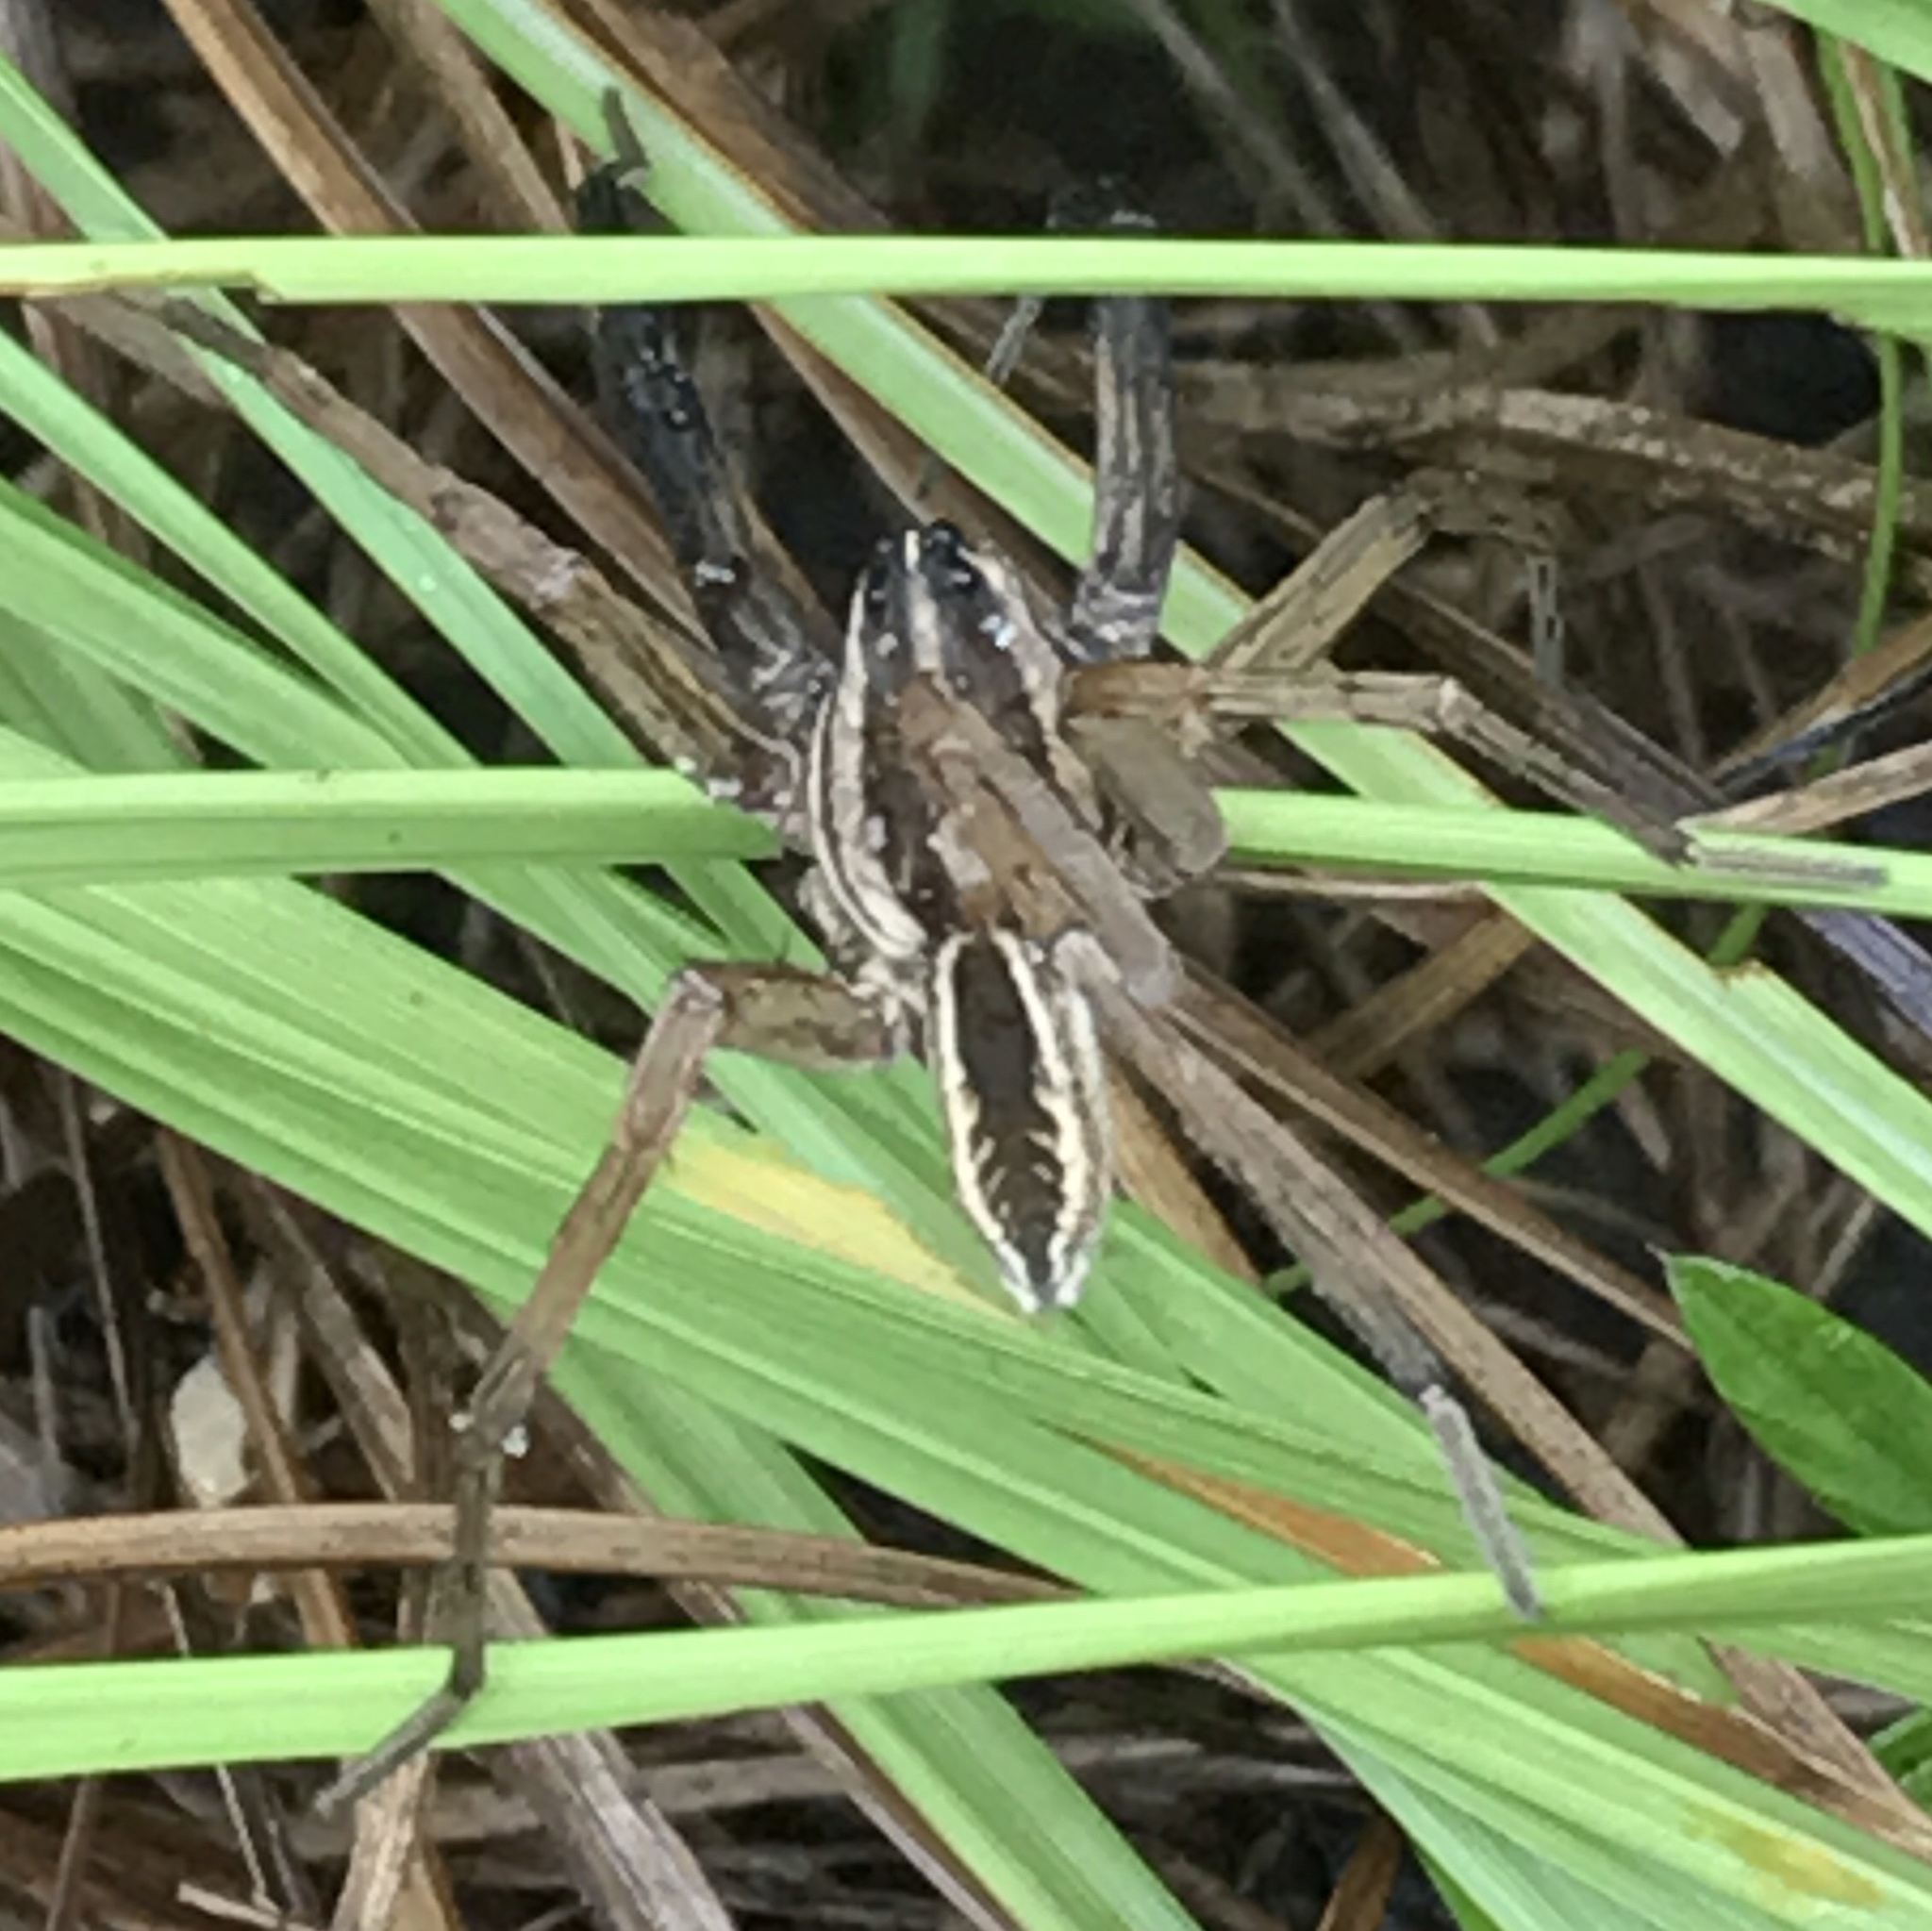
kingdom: Animalia
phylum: Arthropoda
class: Arachnida
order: Araneae
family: Lycosidae
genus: Rabidosa
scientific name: Rabidosa rabida
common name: Rabid wolf spider
